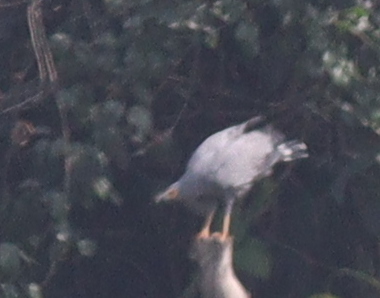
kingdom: Animalia
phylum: Chordata
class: Aves
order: Accipitriformes
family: Accipitridae
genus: Polyboroides
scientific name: Polyboroides typus
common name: African harrier-hawk
